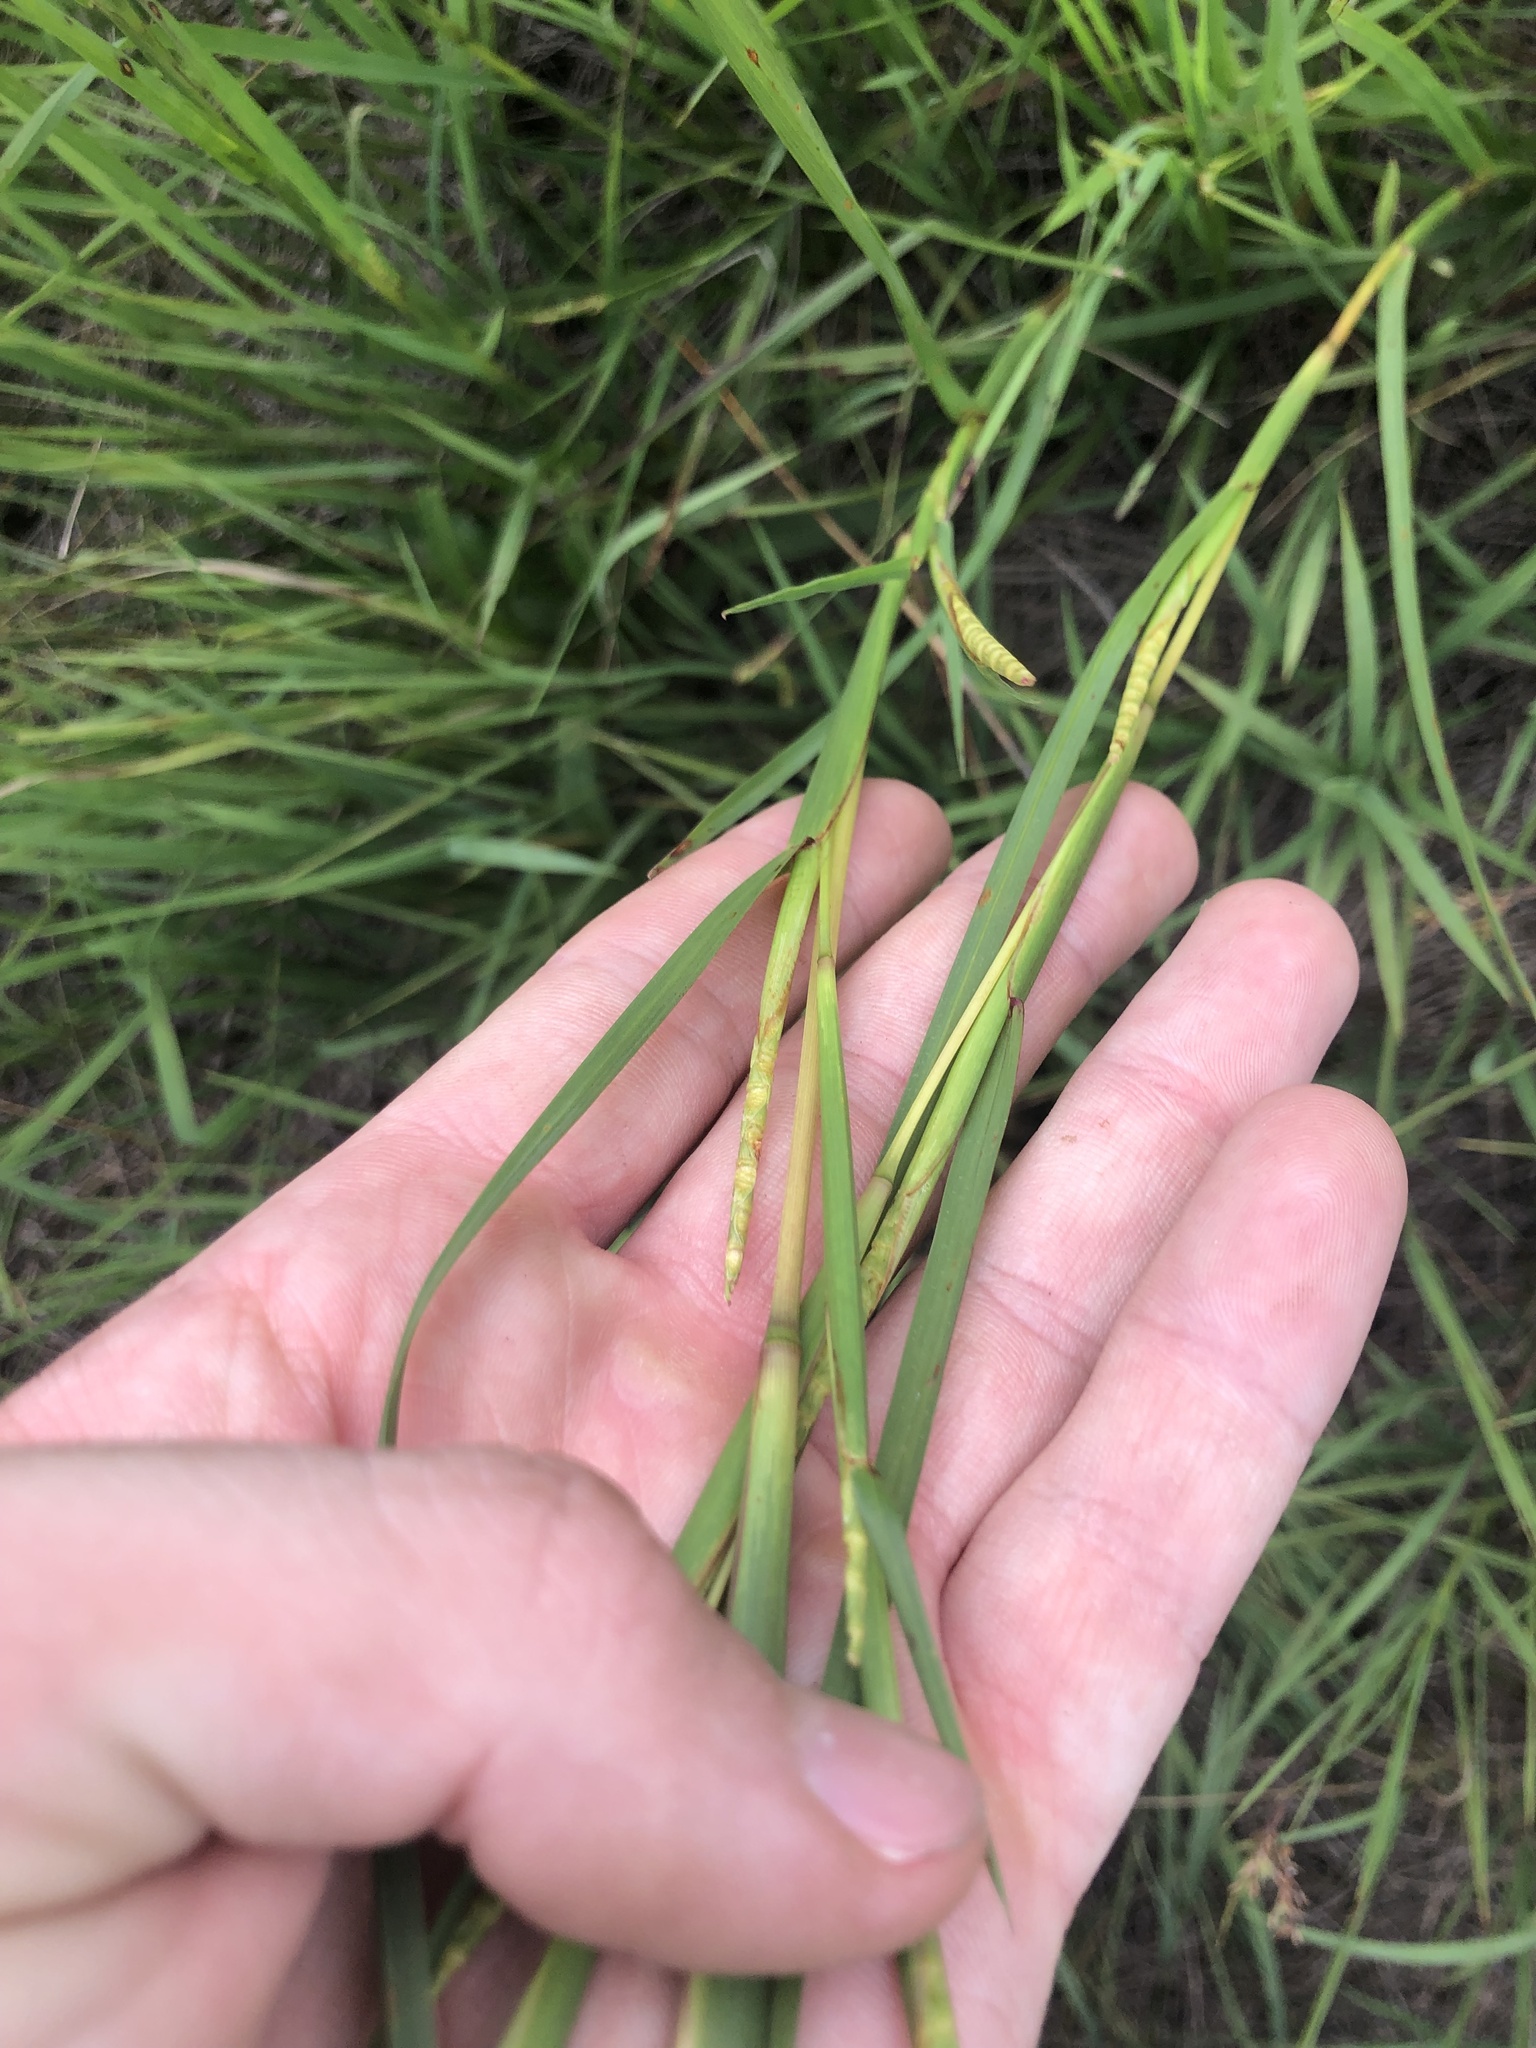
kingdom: Plantae
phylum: Tracheophyta
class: Liliopsida
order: Poales
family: Poaceae
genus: Rottboellia
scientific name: Rottboellia rugosa
